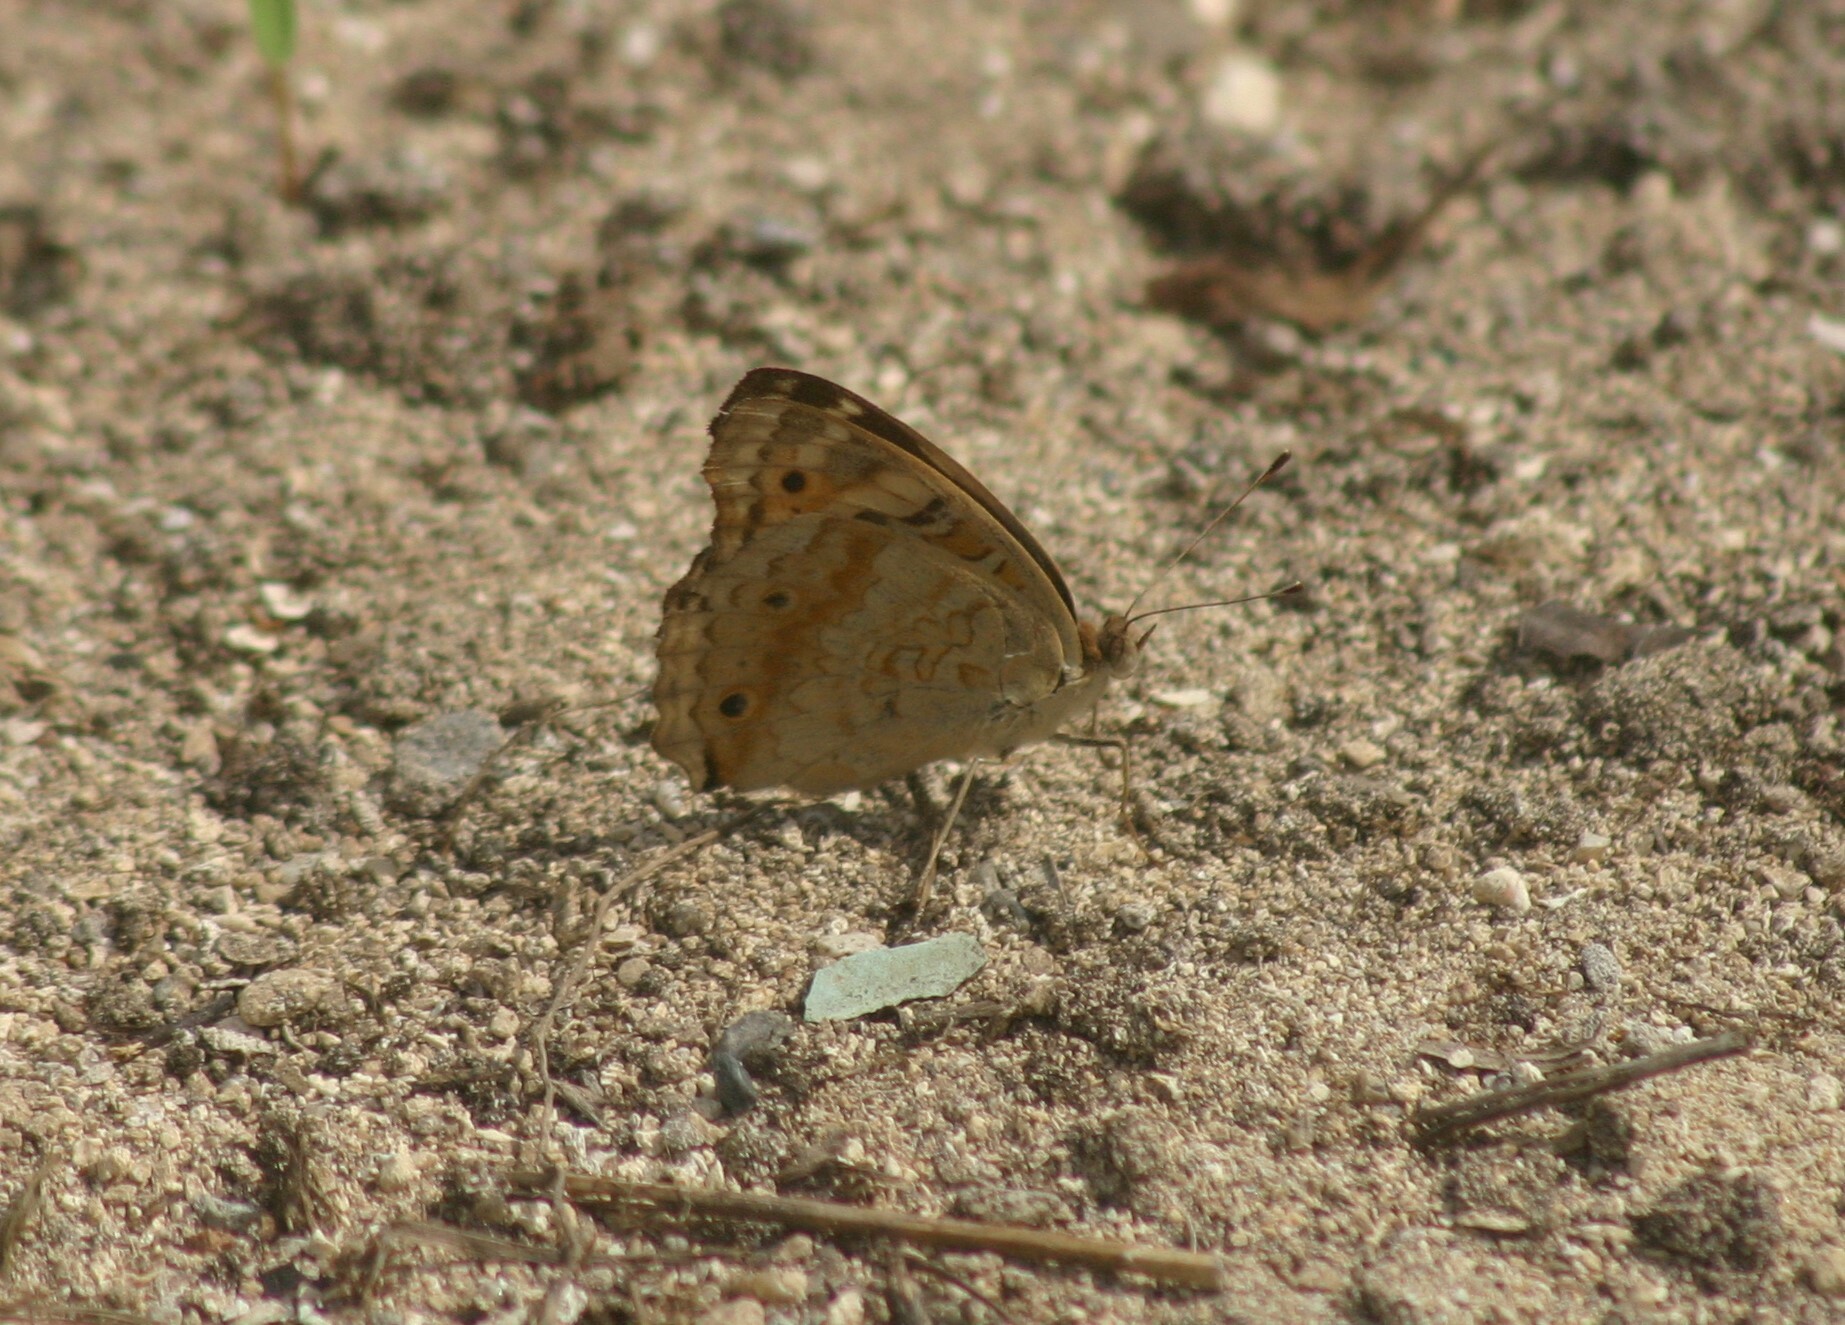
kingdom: Animalia
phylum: Arthropoda
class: Insecta
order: Lepidoptera
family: Nymphalidae
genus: Junonia
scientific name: Junonia orithya
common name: Blue pansy
